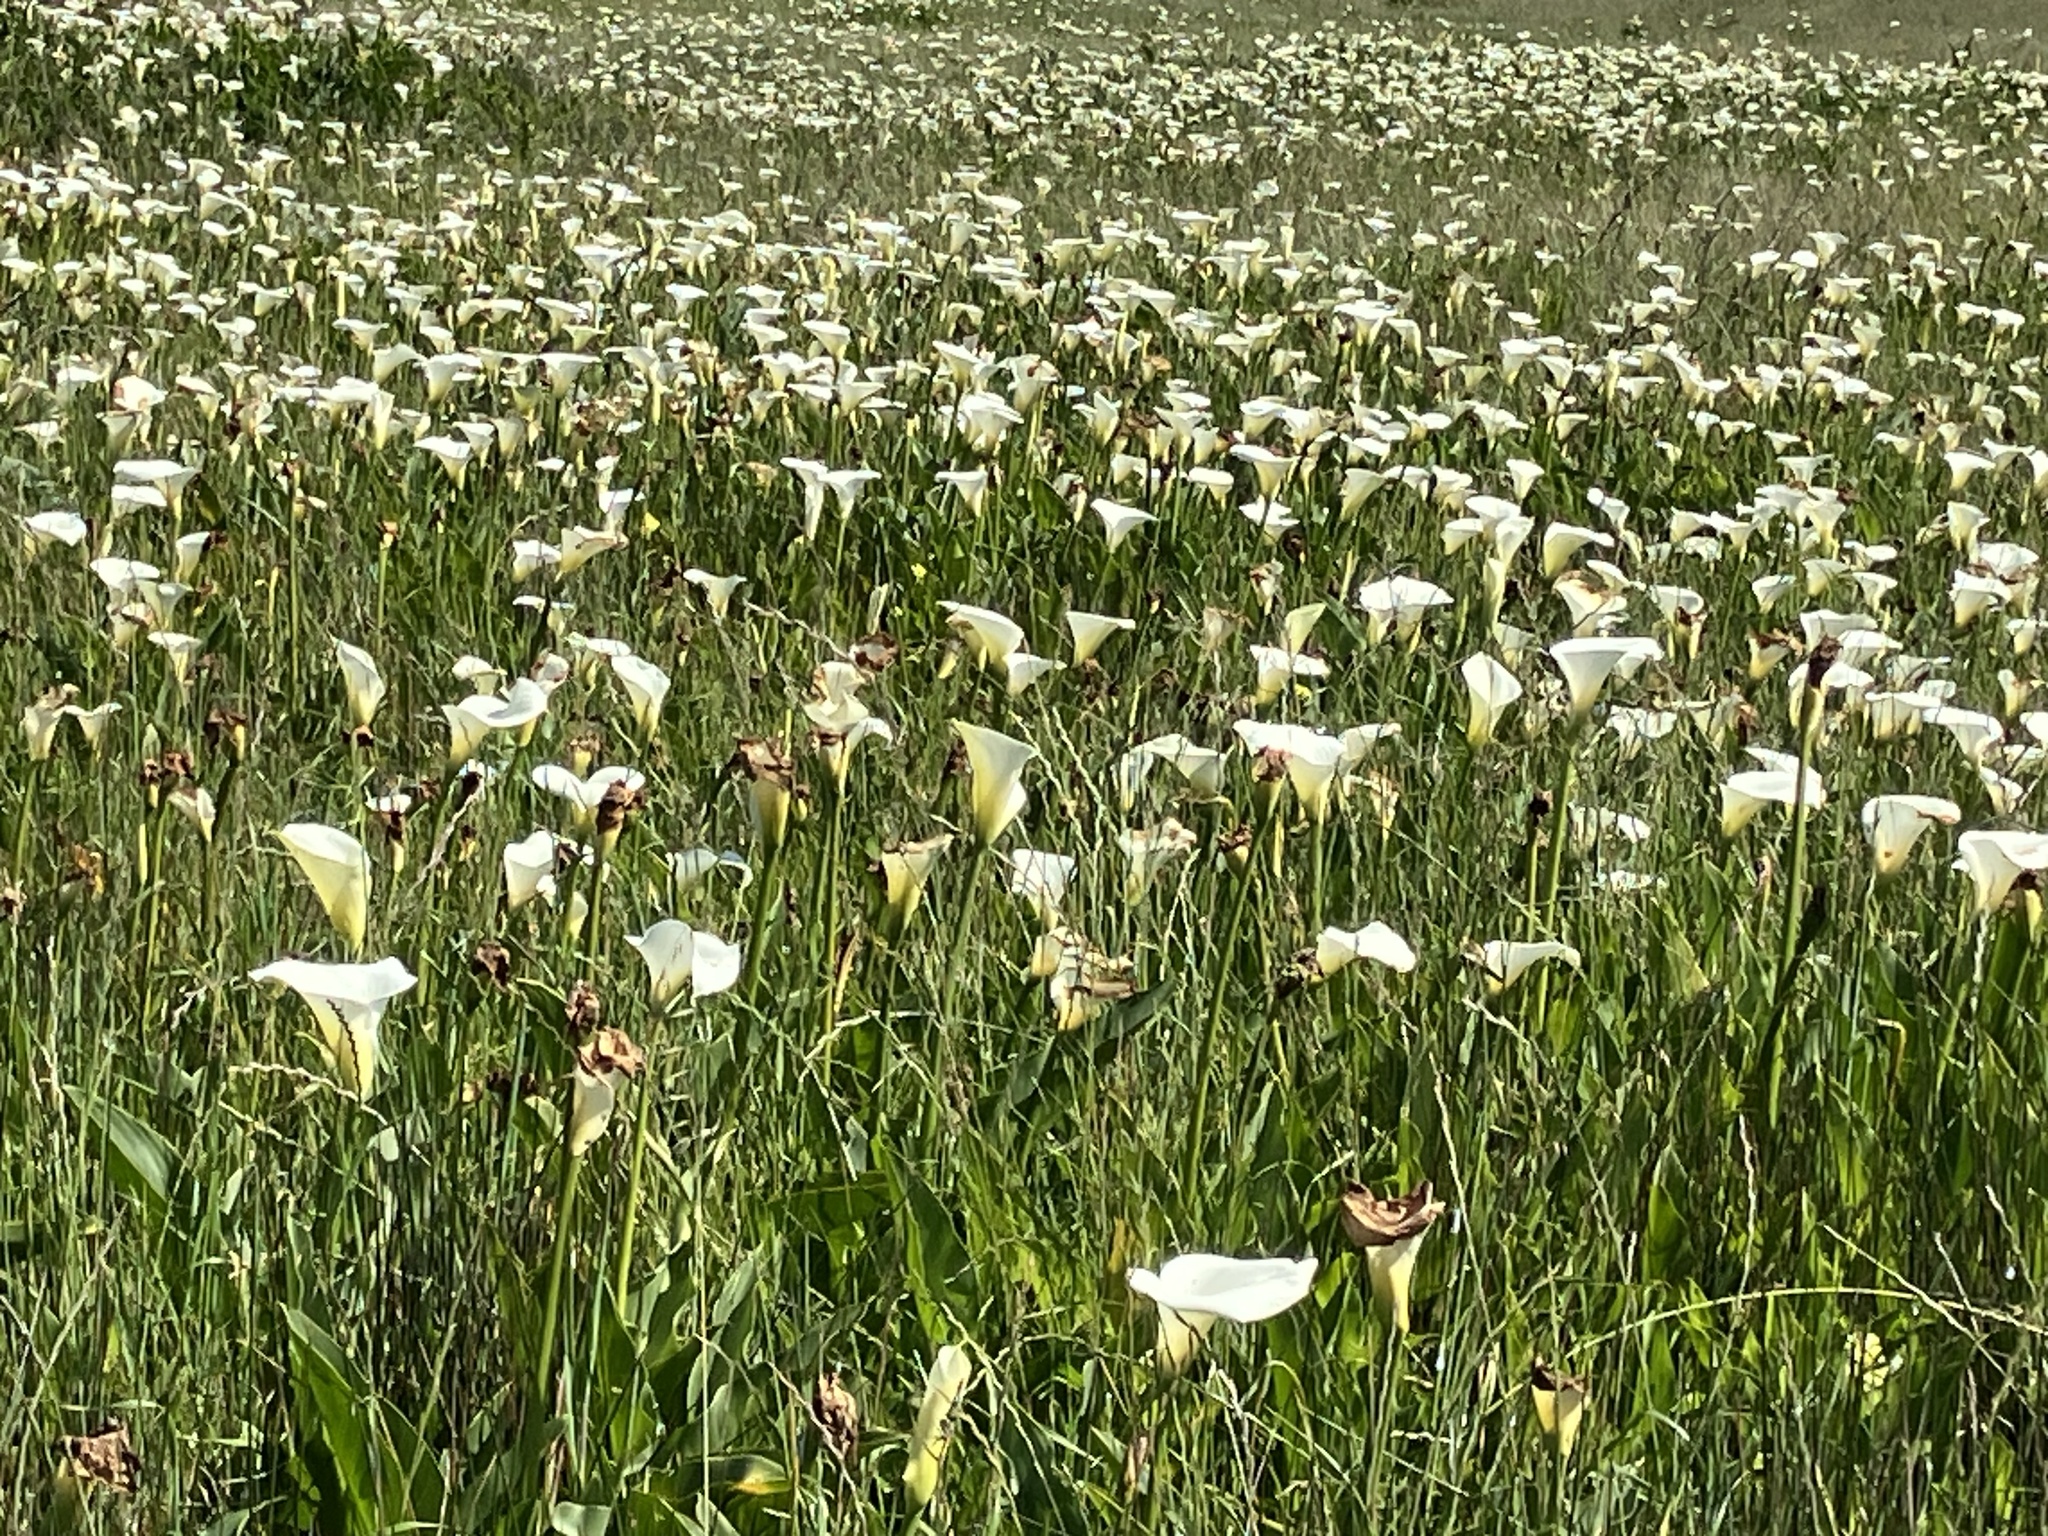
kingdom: Plantae
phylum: Tracheophyta
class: Liliopsida
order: Alismatales
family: Araceae
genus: Zantedeschia
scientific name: Zantedeschia aethiopica
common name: Altar-lily
